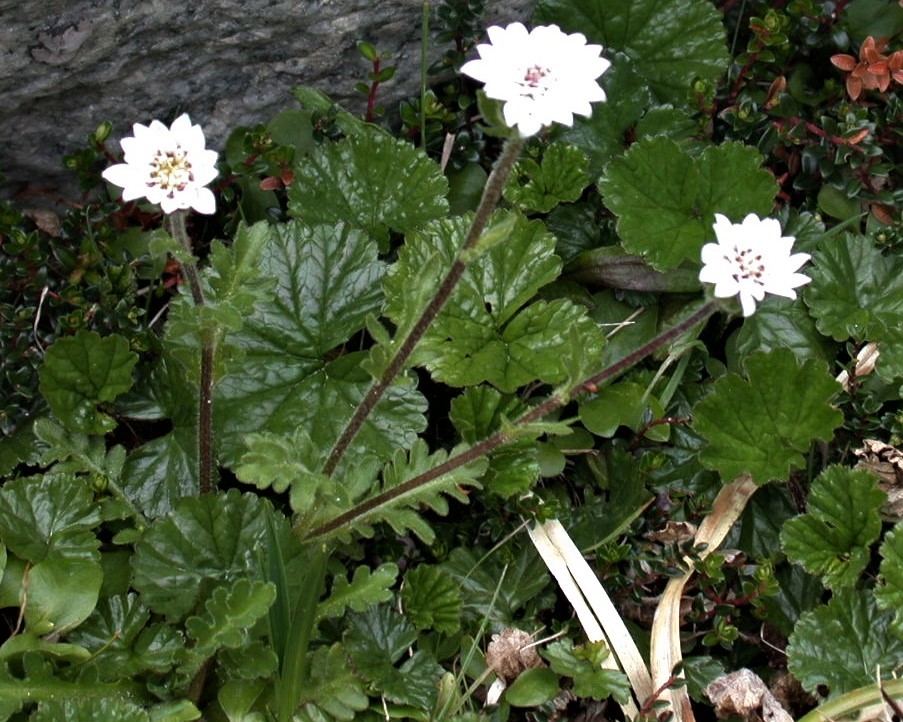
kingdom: Plantae
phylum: Tracheophyta
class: Magnoliopsida
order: Asterales
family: Asteraceae
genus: Leucheria
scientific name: Leucheria papillosa
